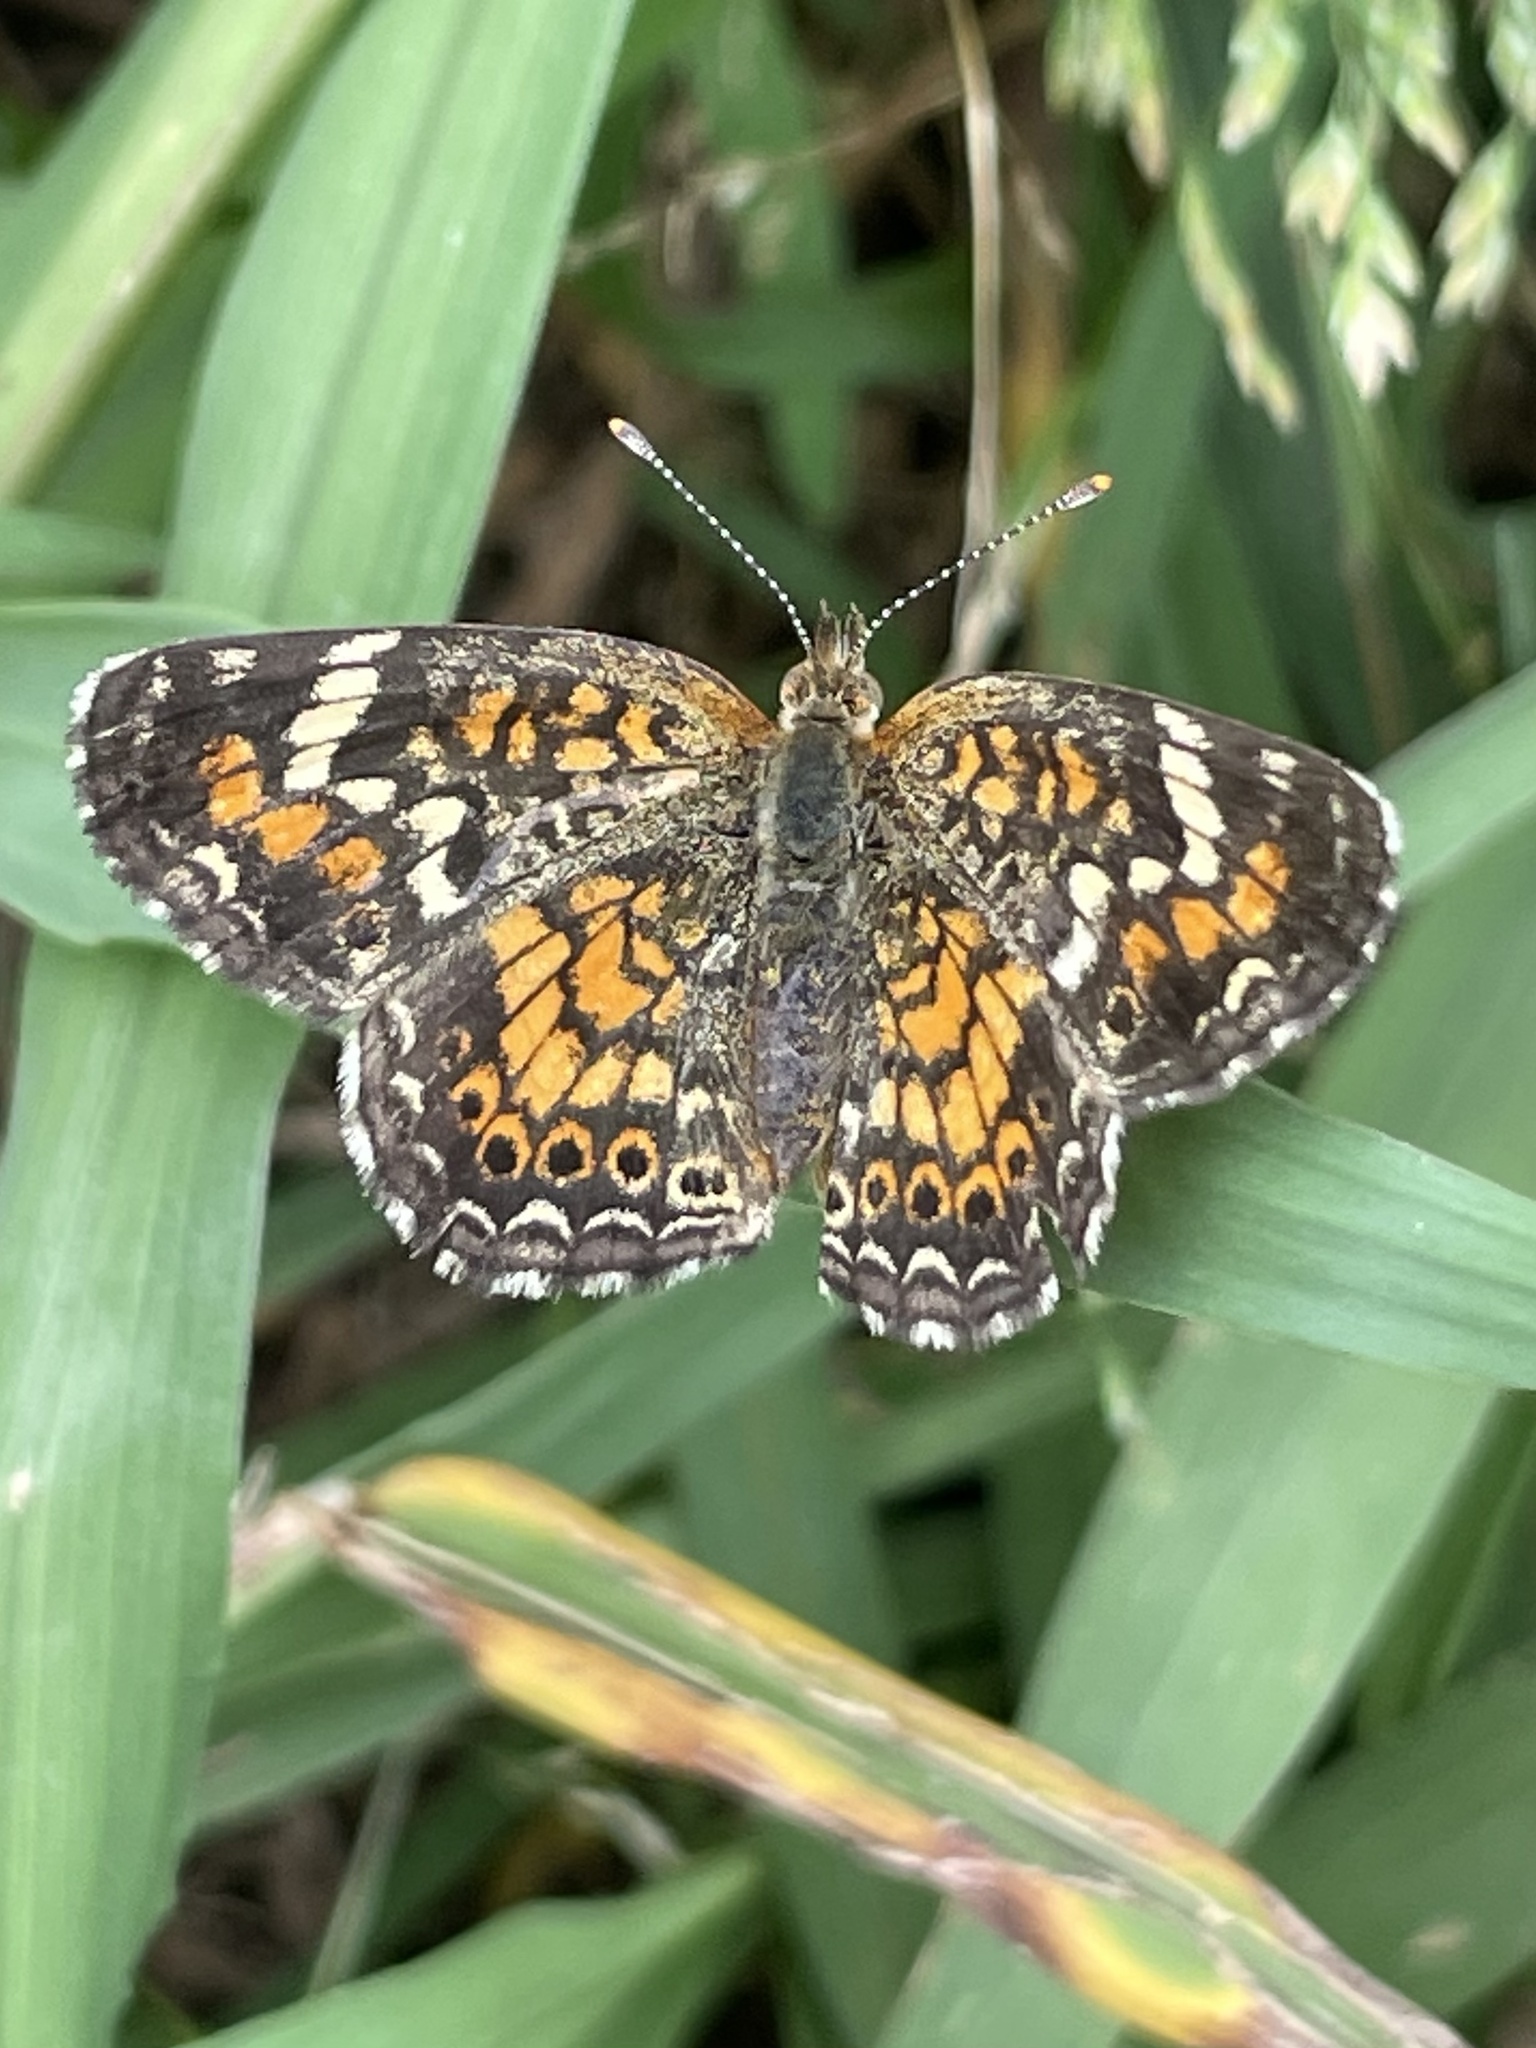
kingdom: Animalia
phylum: Arthropoda
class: Insecta
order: Lepidoptera
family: Nymphalidae
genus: Phyciodes
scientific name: Phyciodes phaon
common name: Phaon crescent
